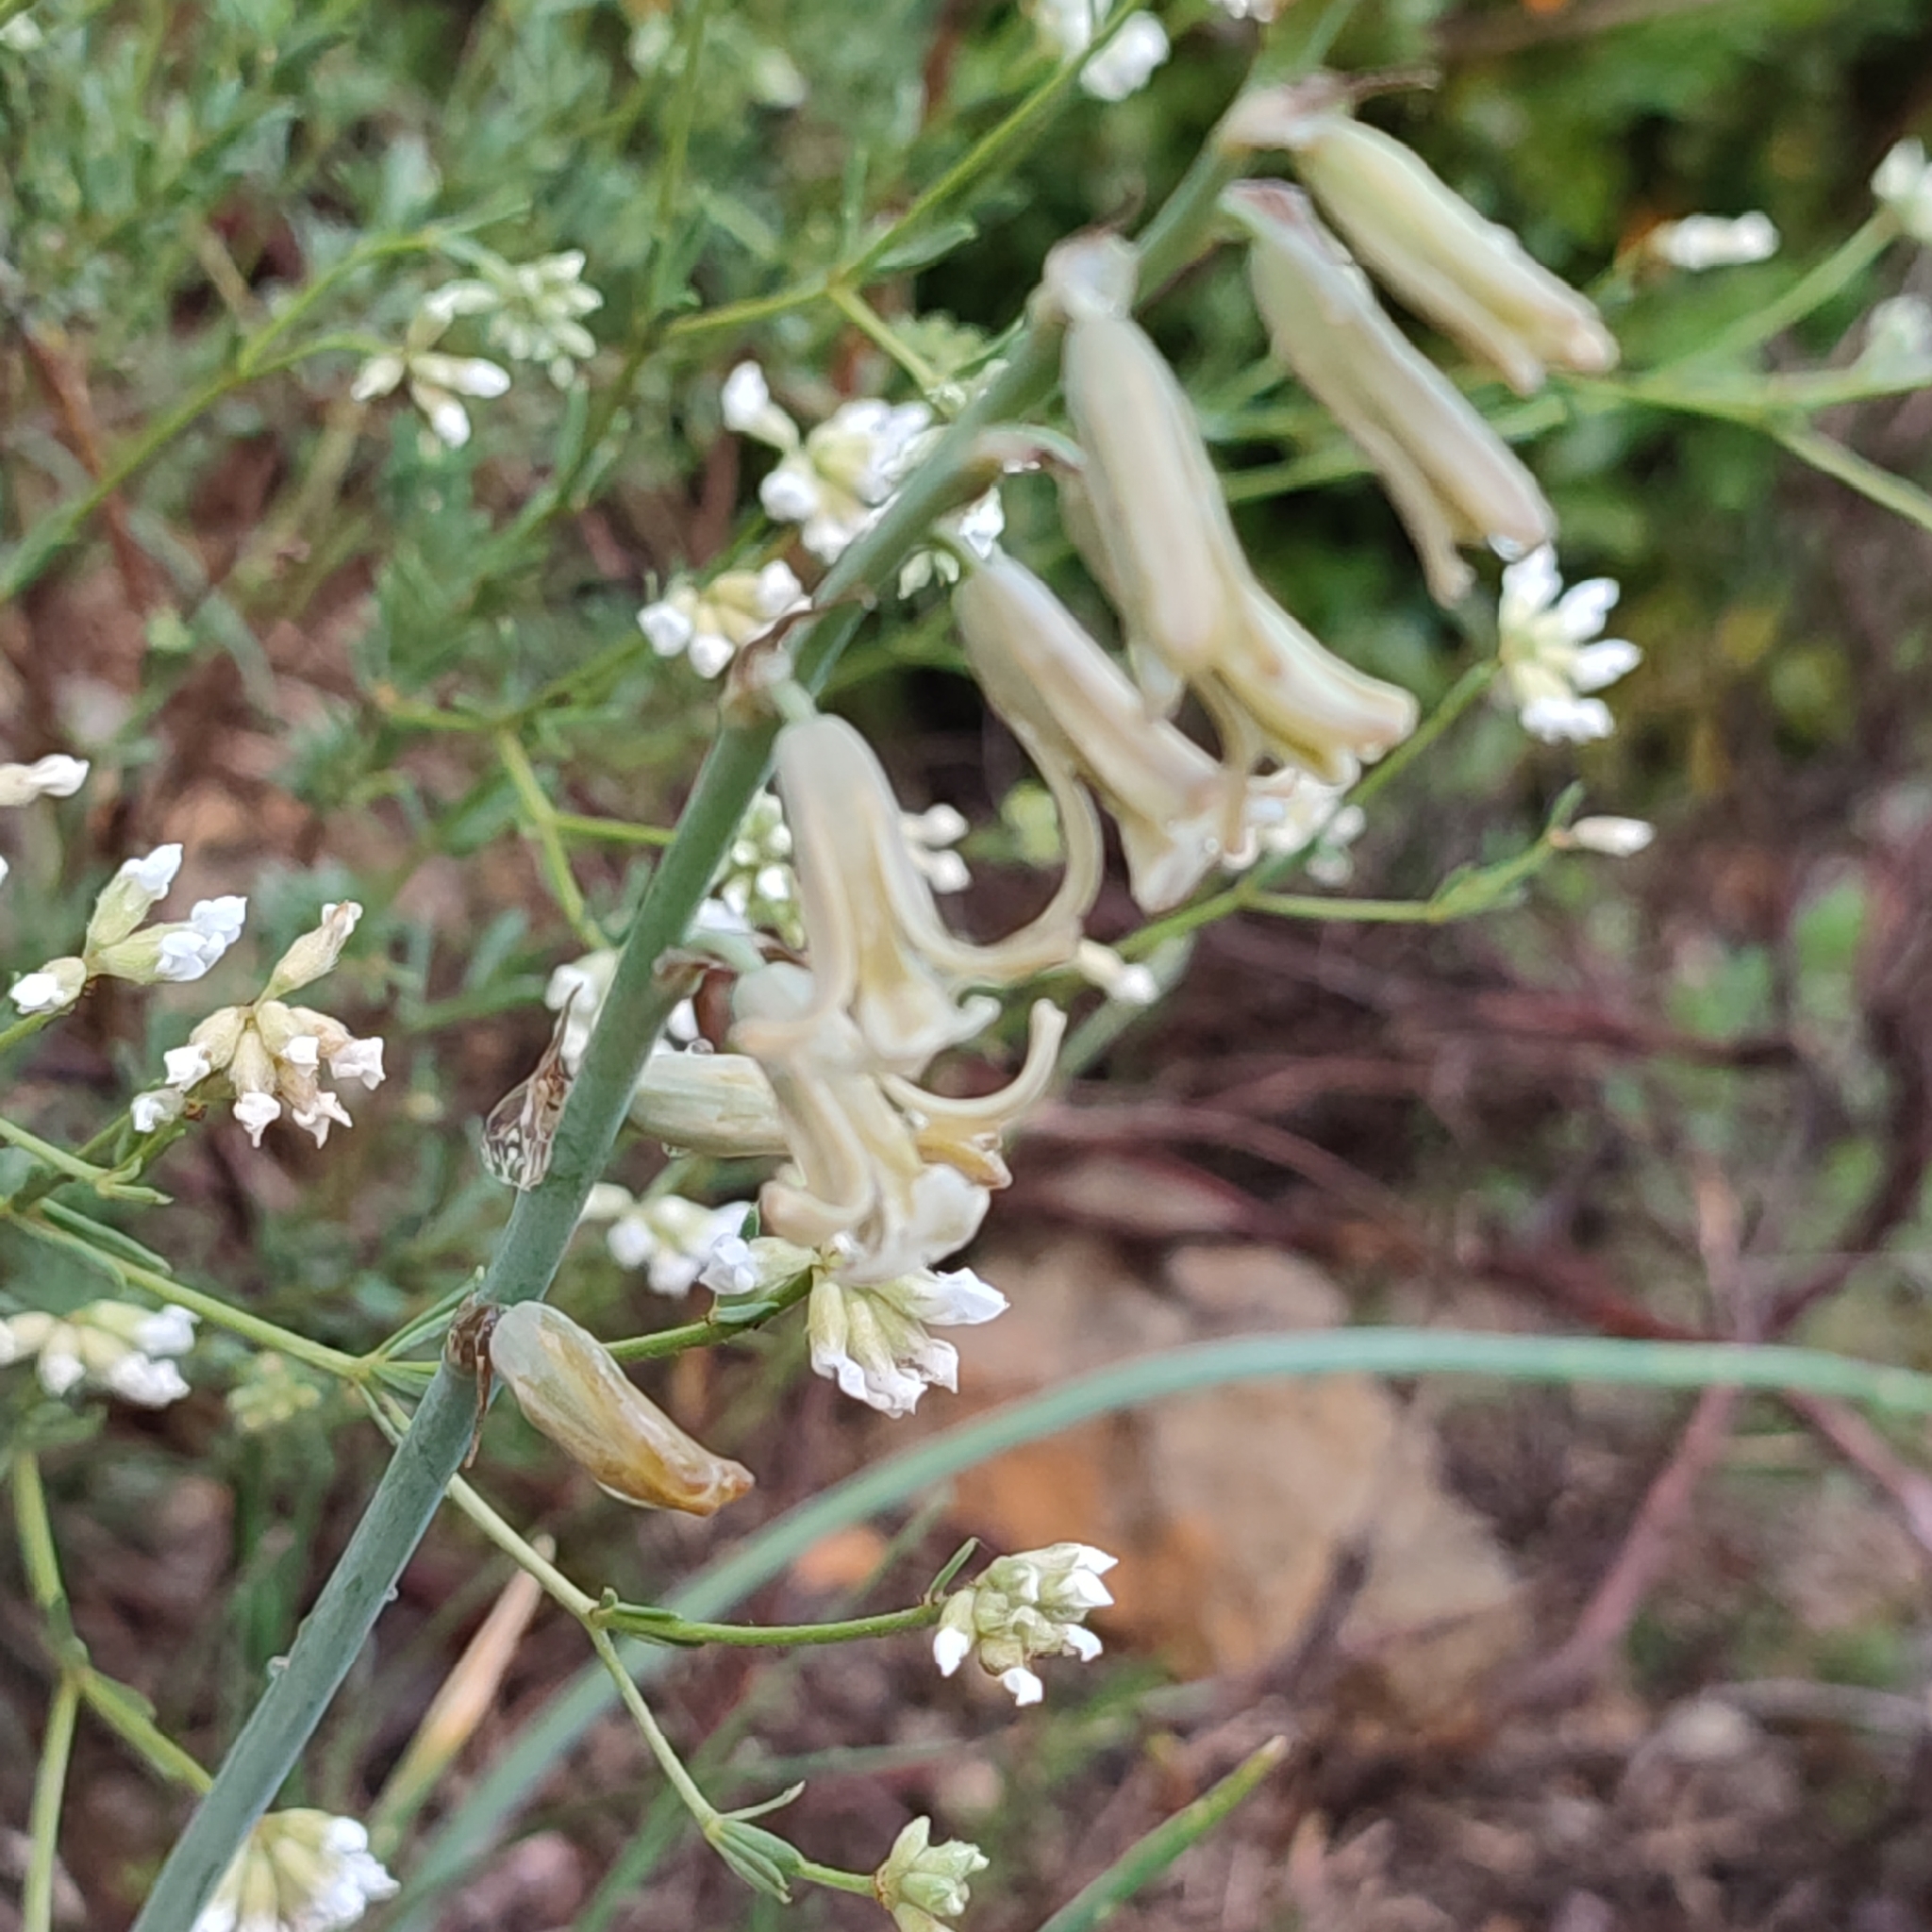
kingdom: Plantae
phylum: Tracheophyta
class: Liliopsida
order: Asparagales
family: Asparagaceae
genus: Dipcadi
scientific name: Dipcadi serotinum
